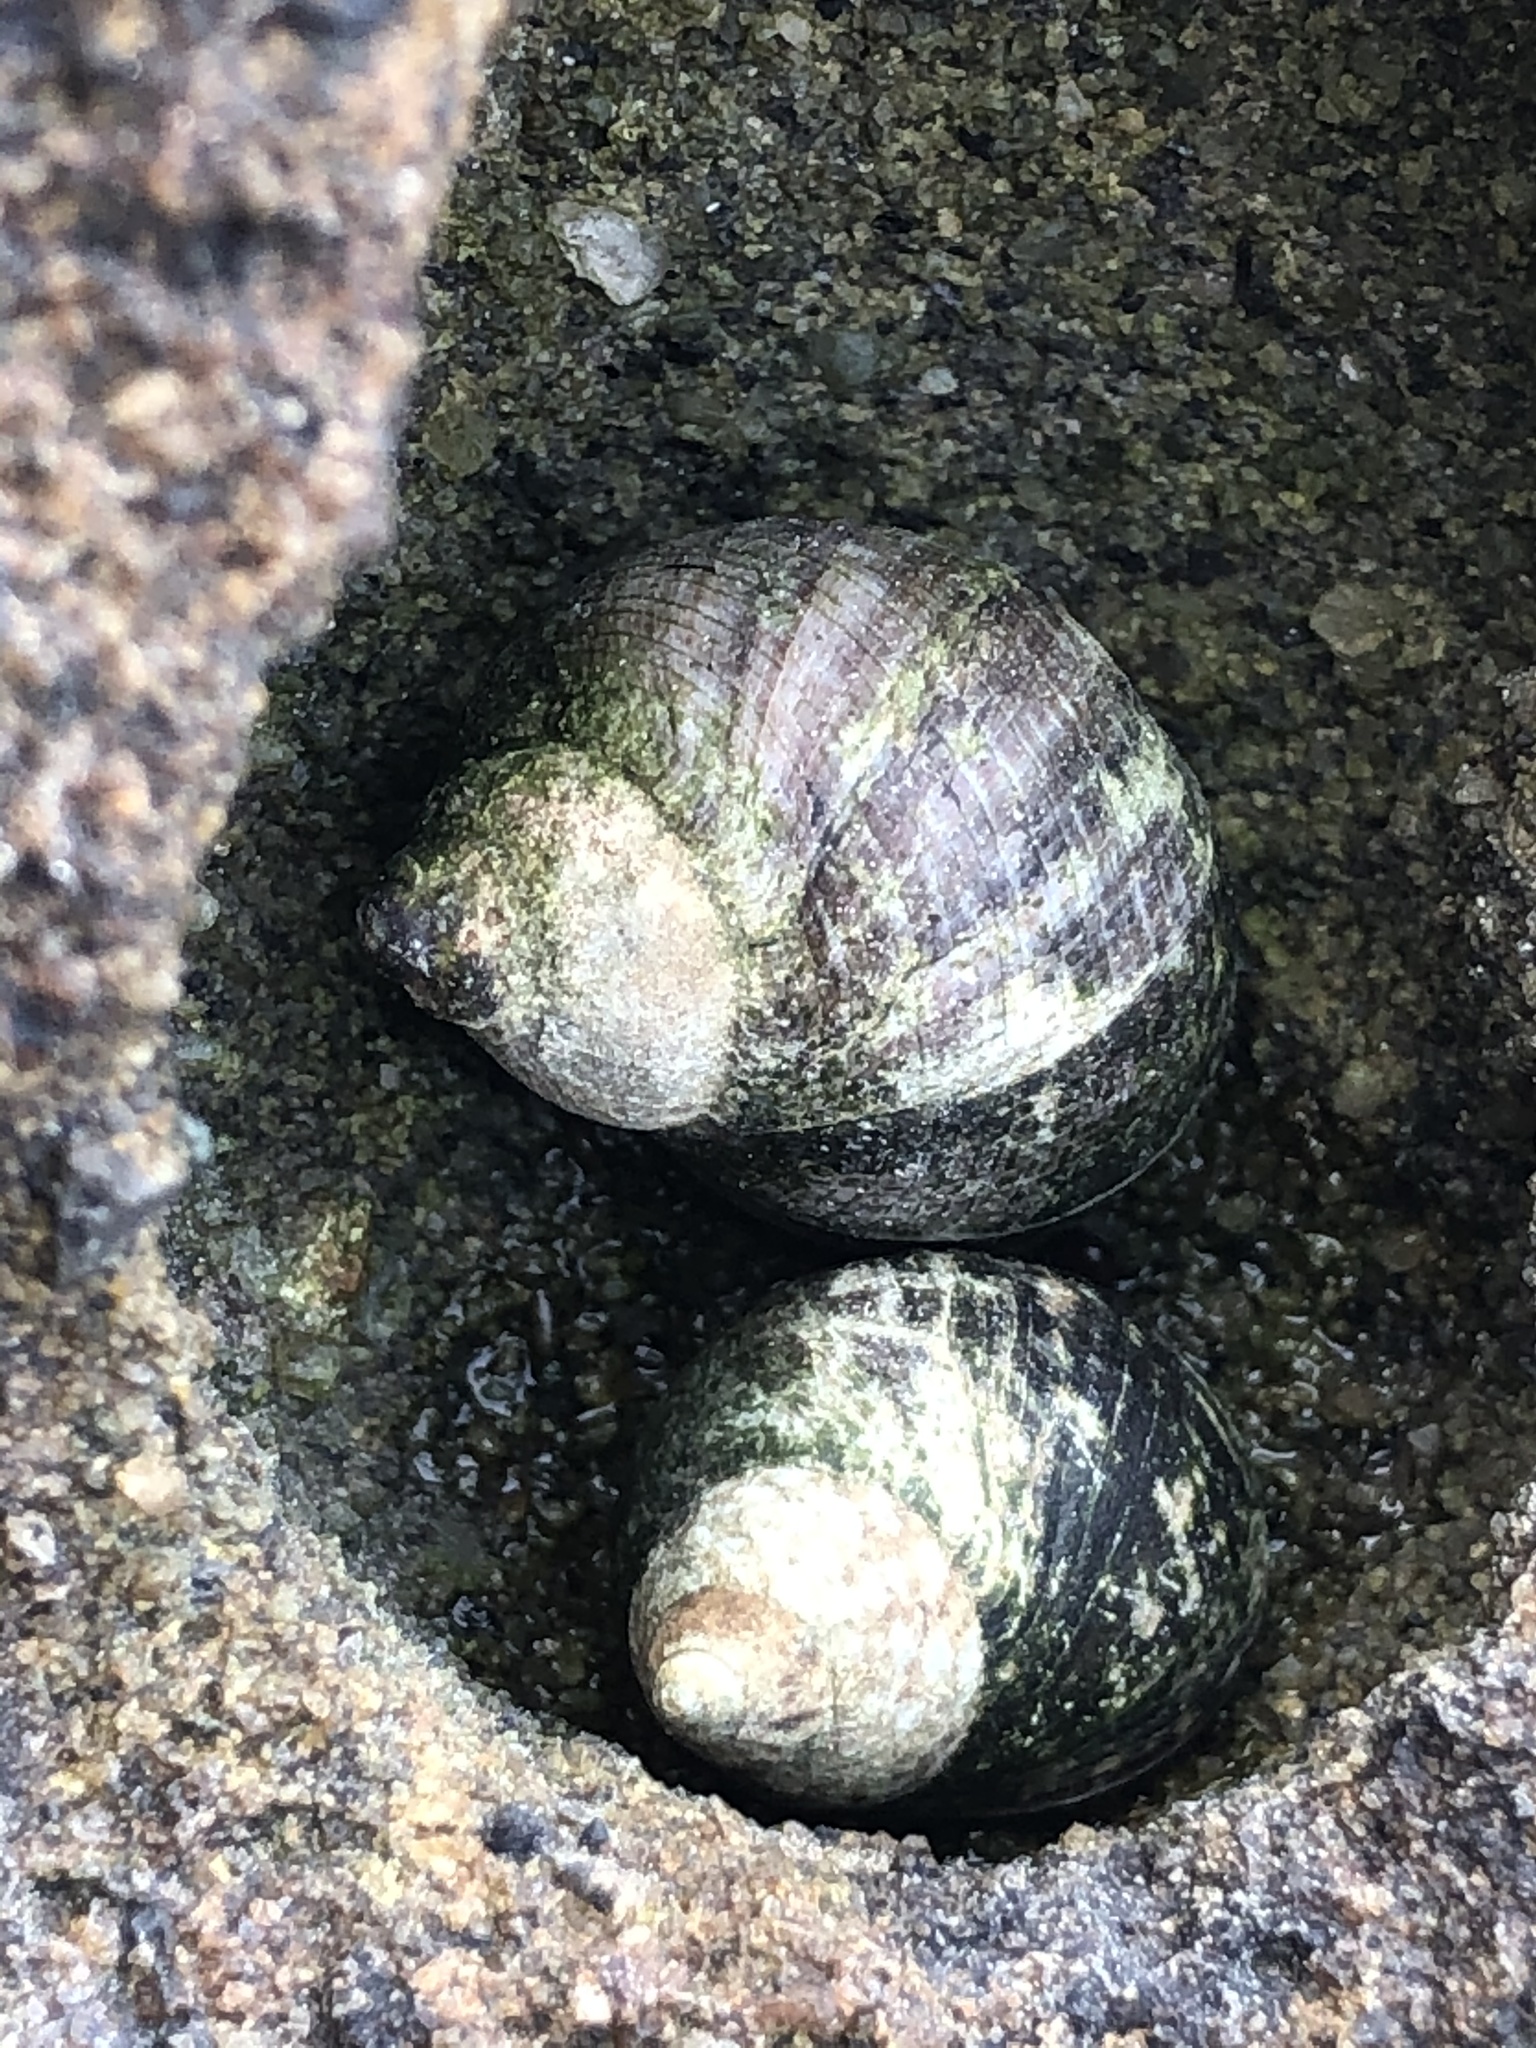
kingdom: Animalia
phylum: Mollusca
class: Gastropoda
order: Littorinimorpha
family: Littorinidae
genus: Littorina
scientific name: Littorina keenae
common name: Eroded periwinkle
